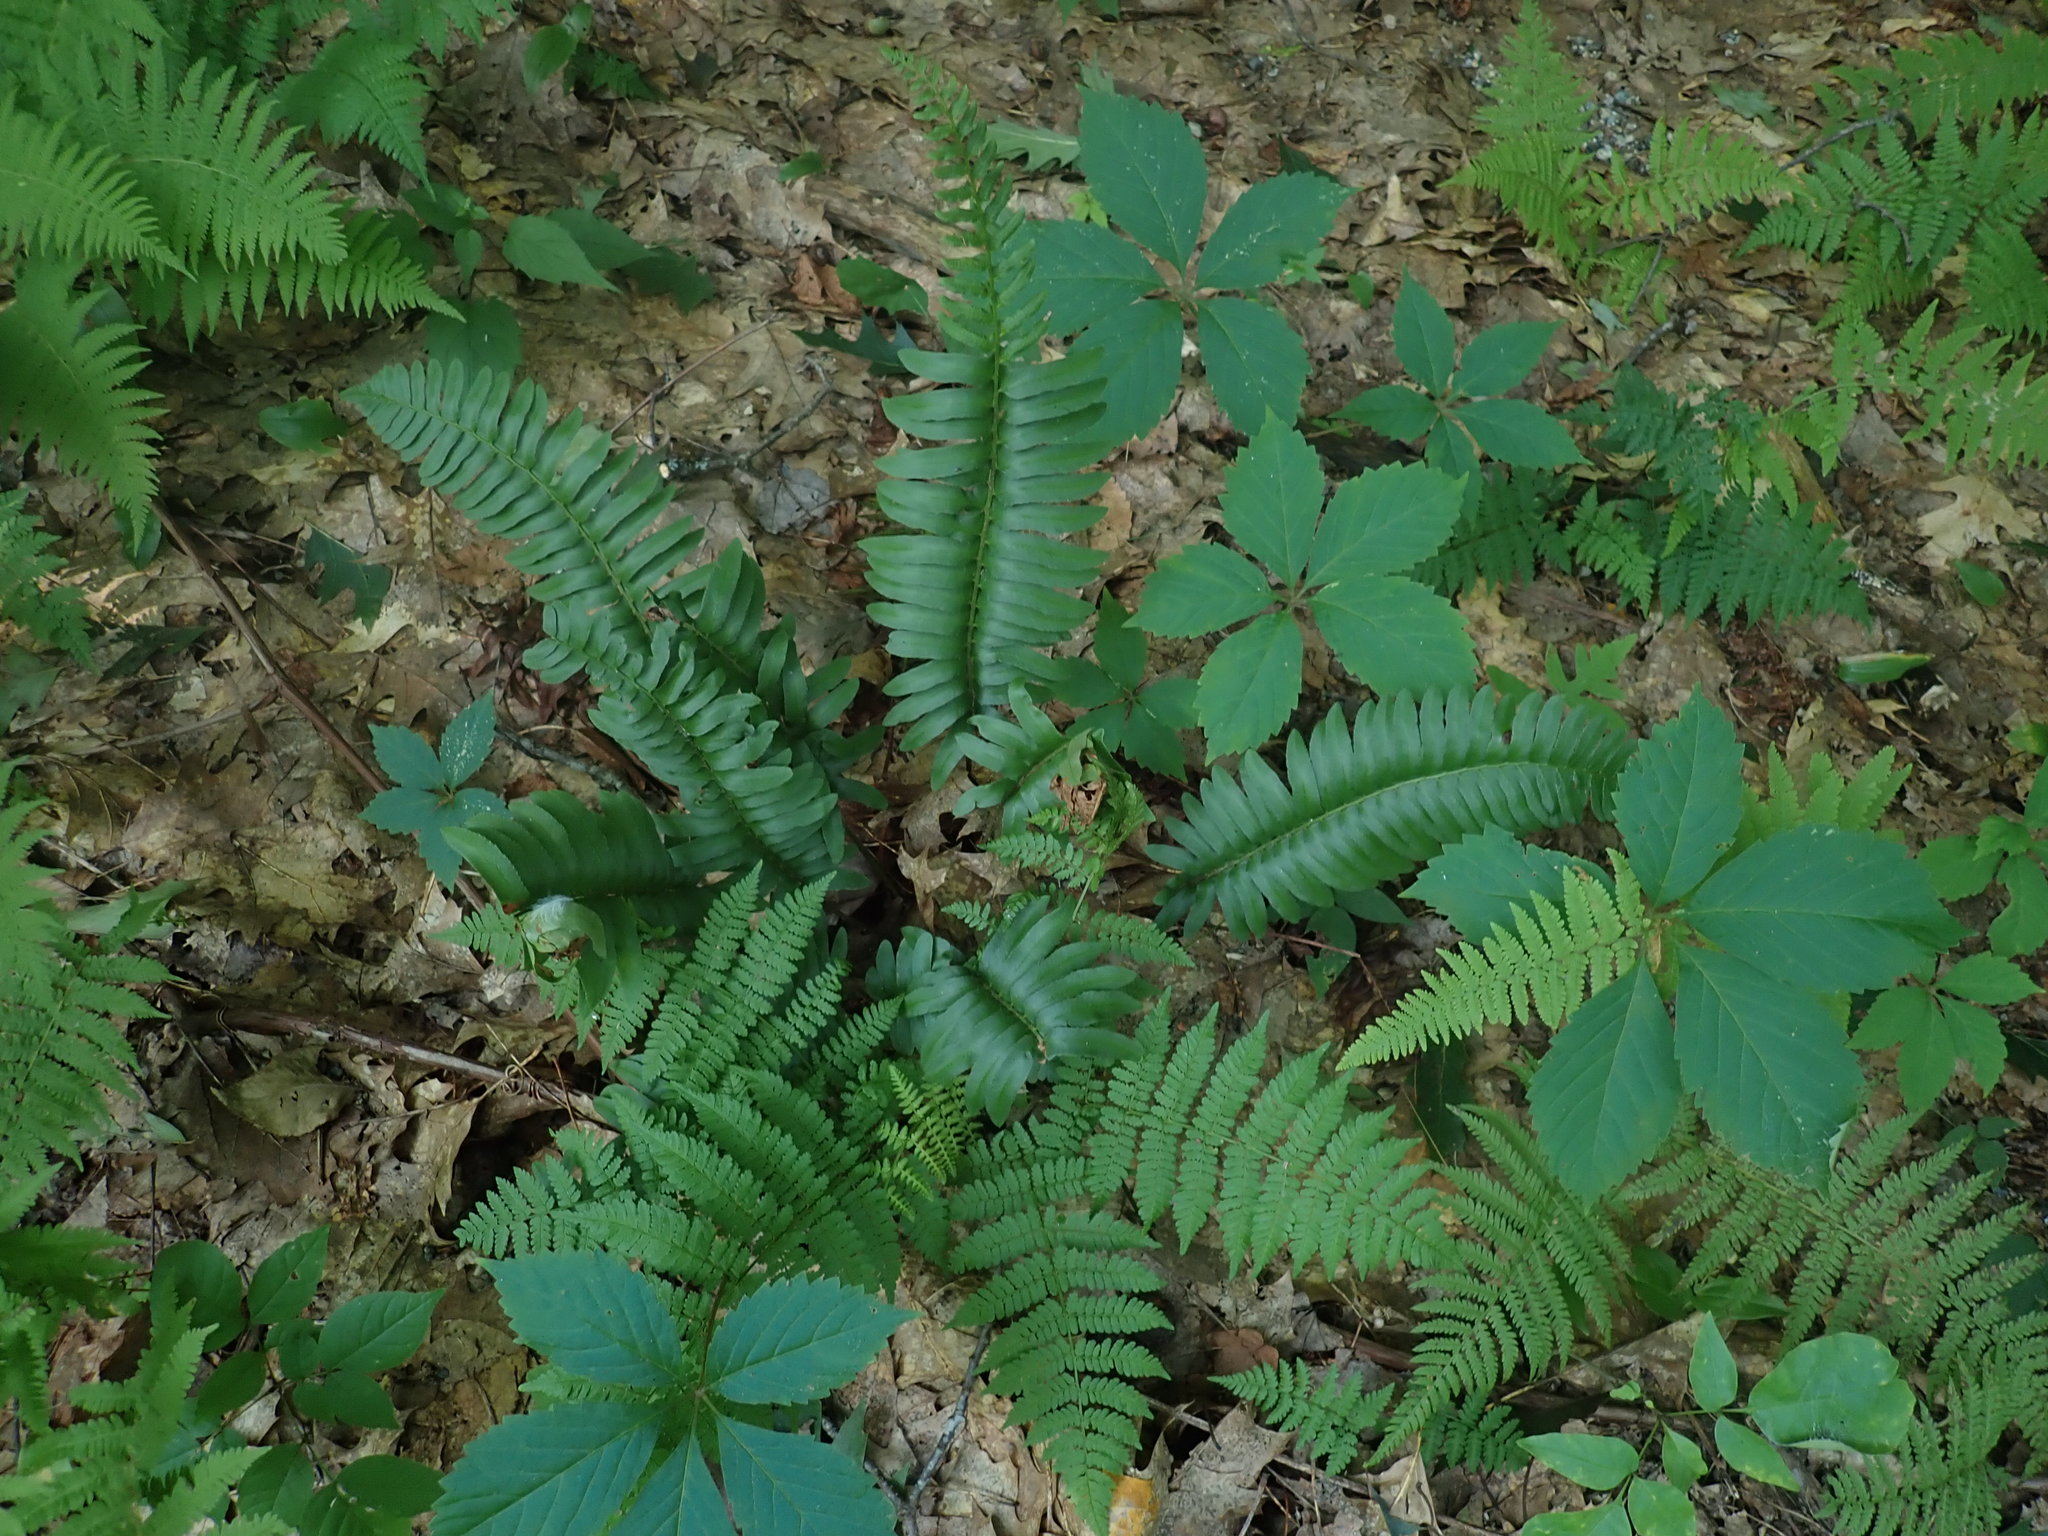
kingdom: Plantae
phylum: Tracheophyta
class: Polypodiopsida
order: Polypodiales
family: Dryopteridaceae
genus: Polystichum
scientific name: Polystichum acrostichoides
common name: Christmas fern
